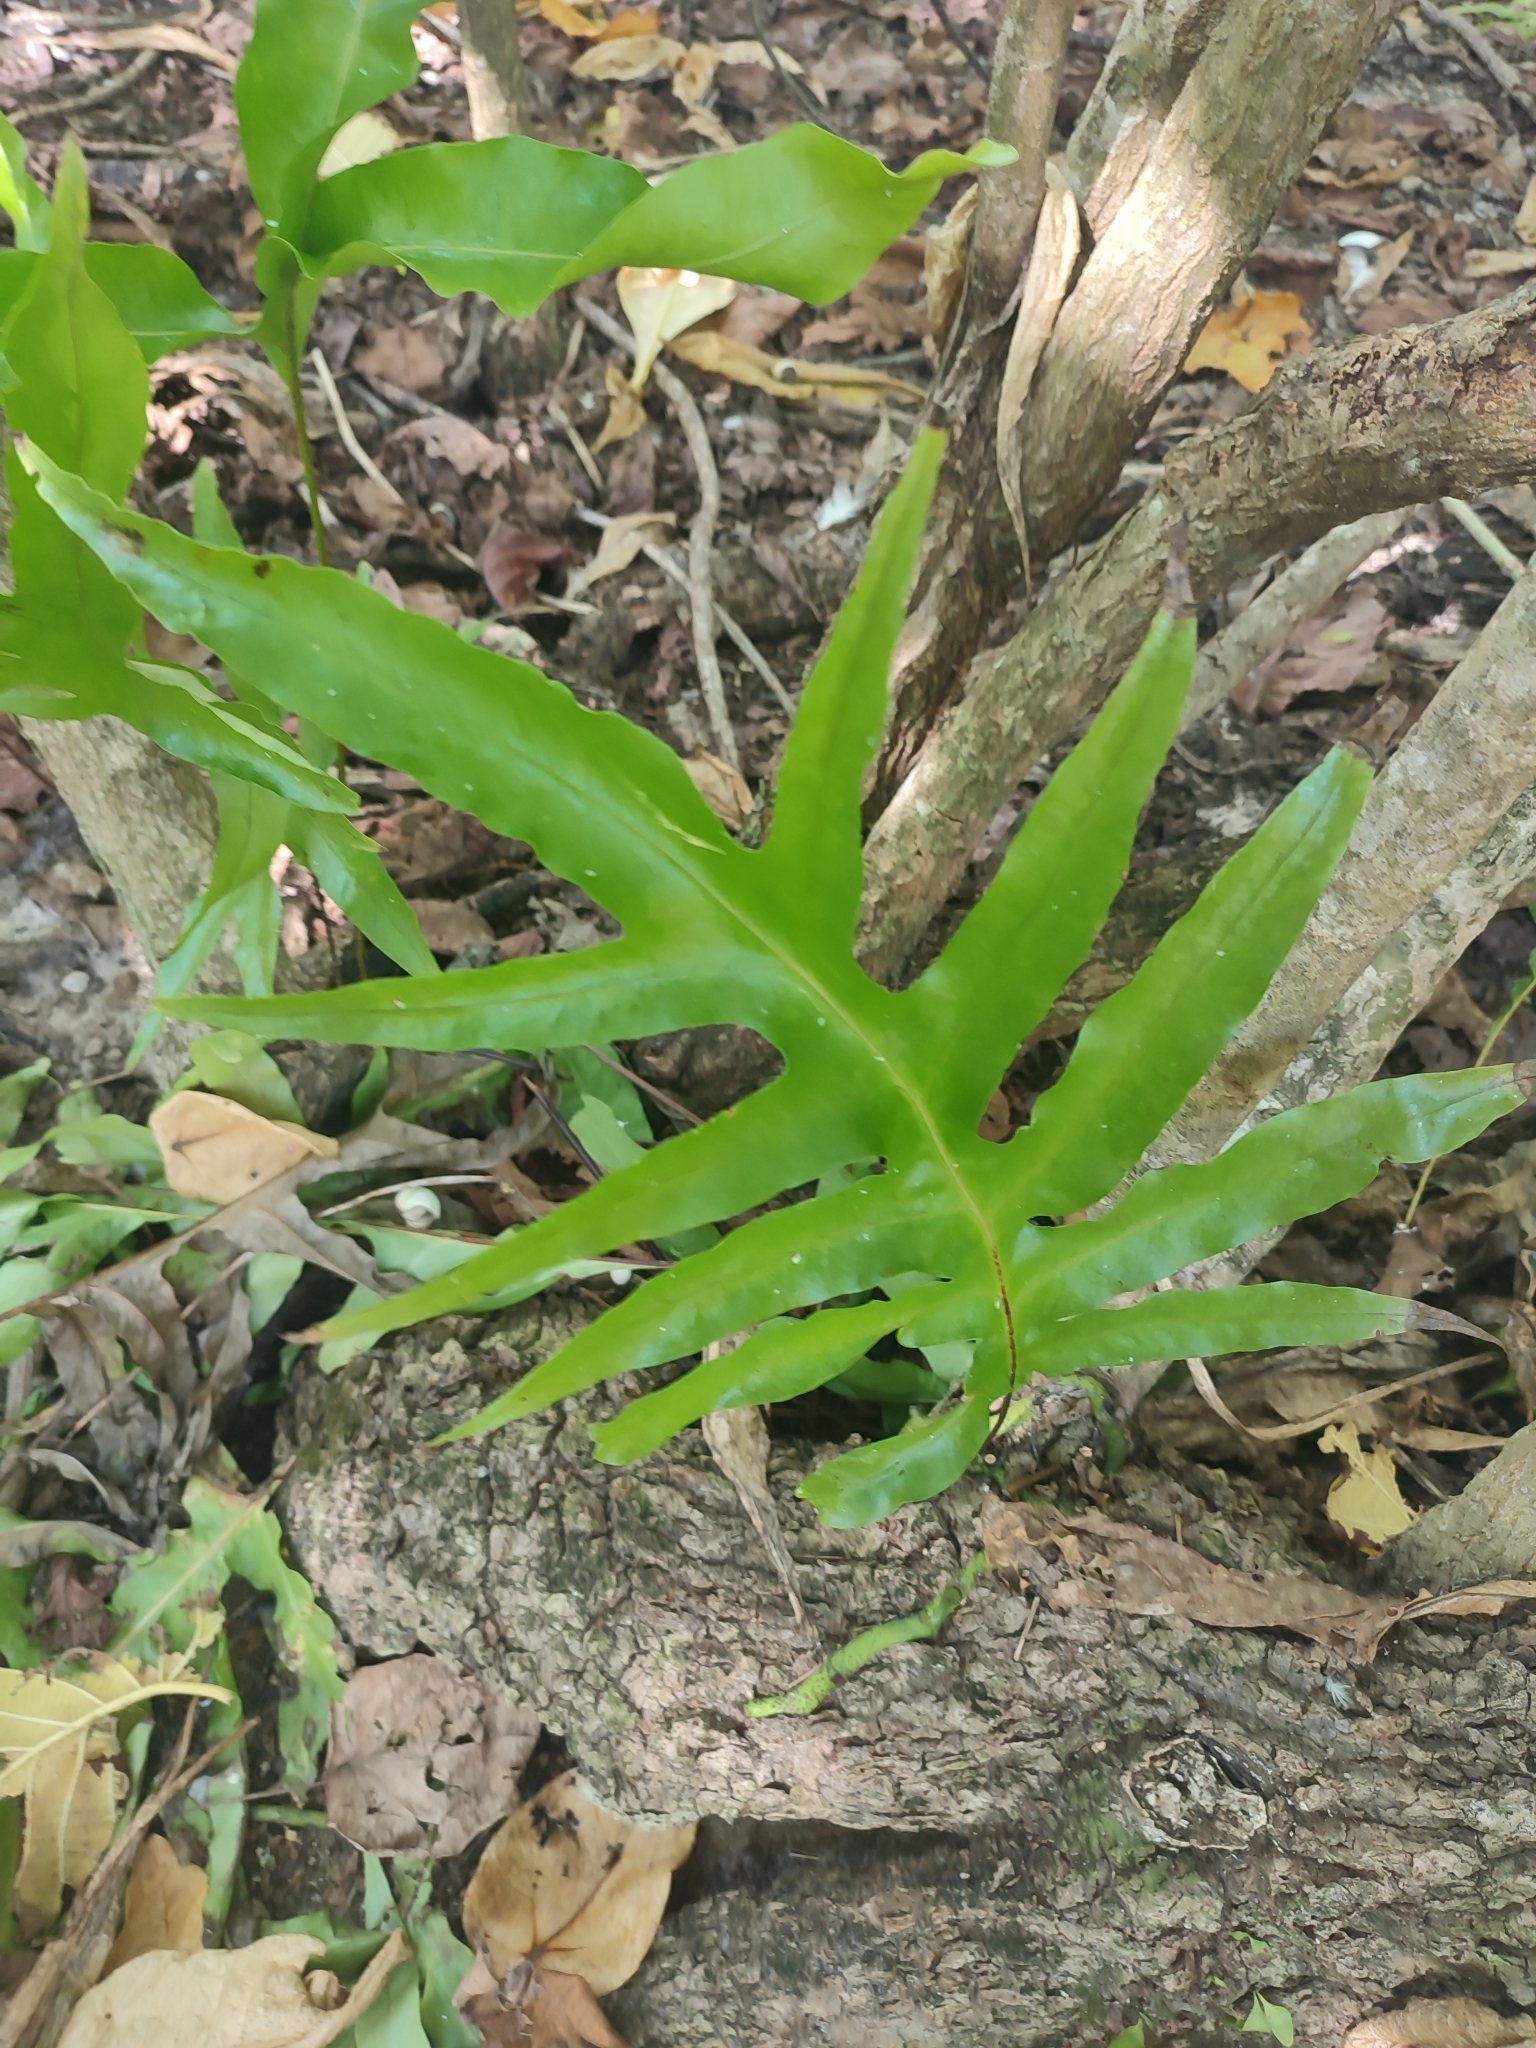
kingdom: Plantae
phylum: Tracheophyta
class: Polypodiopsida
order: Polypodiales
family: Polypodiaceae
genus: Microsorum
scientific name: Microsorum scolopendria
